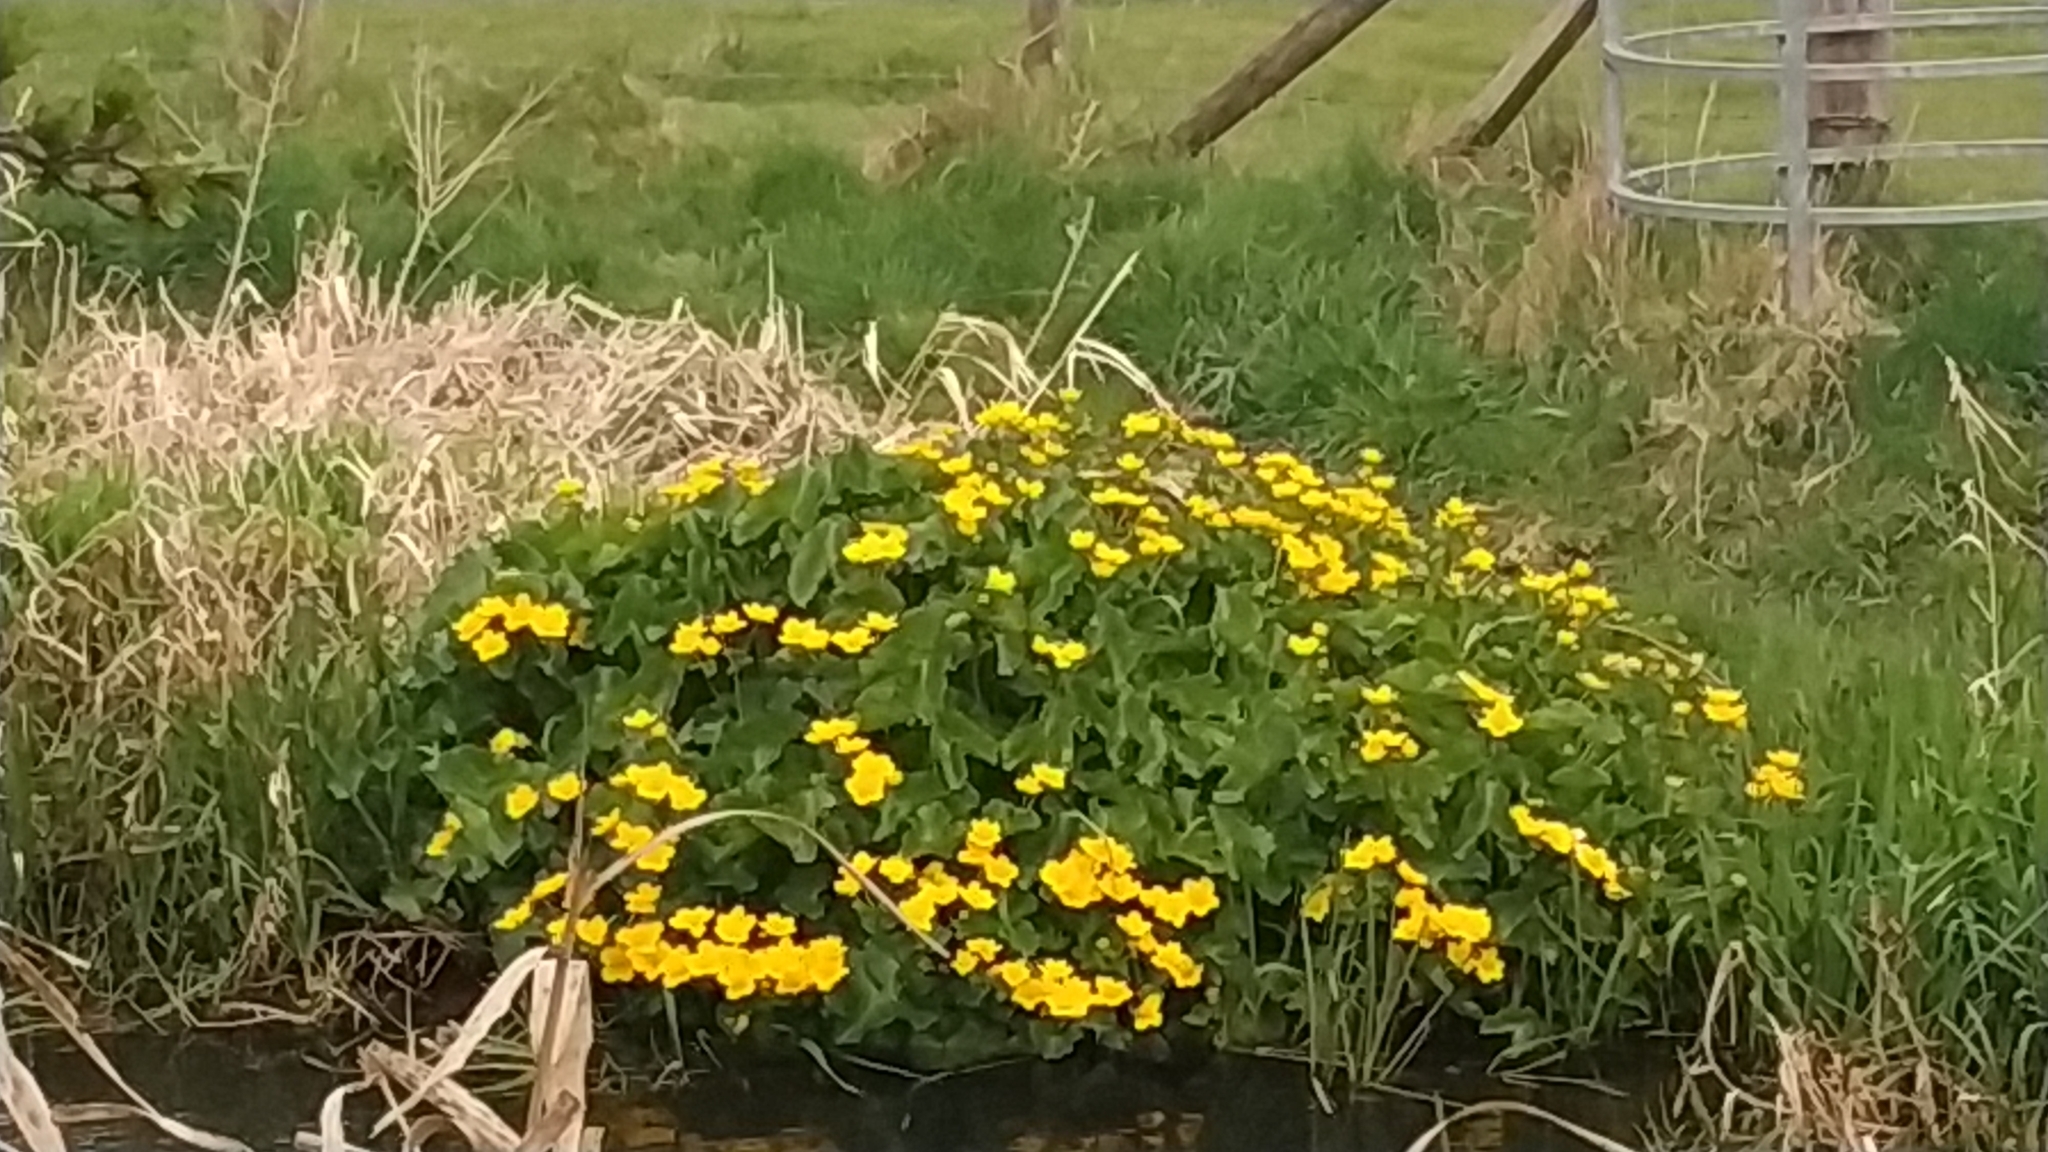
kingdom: Plantae
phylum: Tracheophyta
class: Magnoliopsida
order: Ranunculales
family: Ranunculaceae
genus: Caltha
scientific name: Caltha palustris
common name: Marsh marigold
